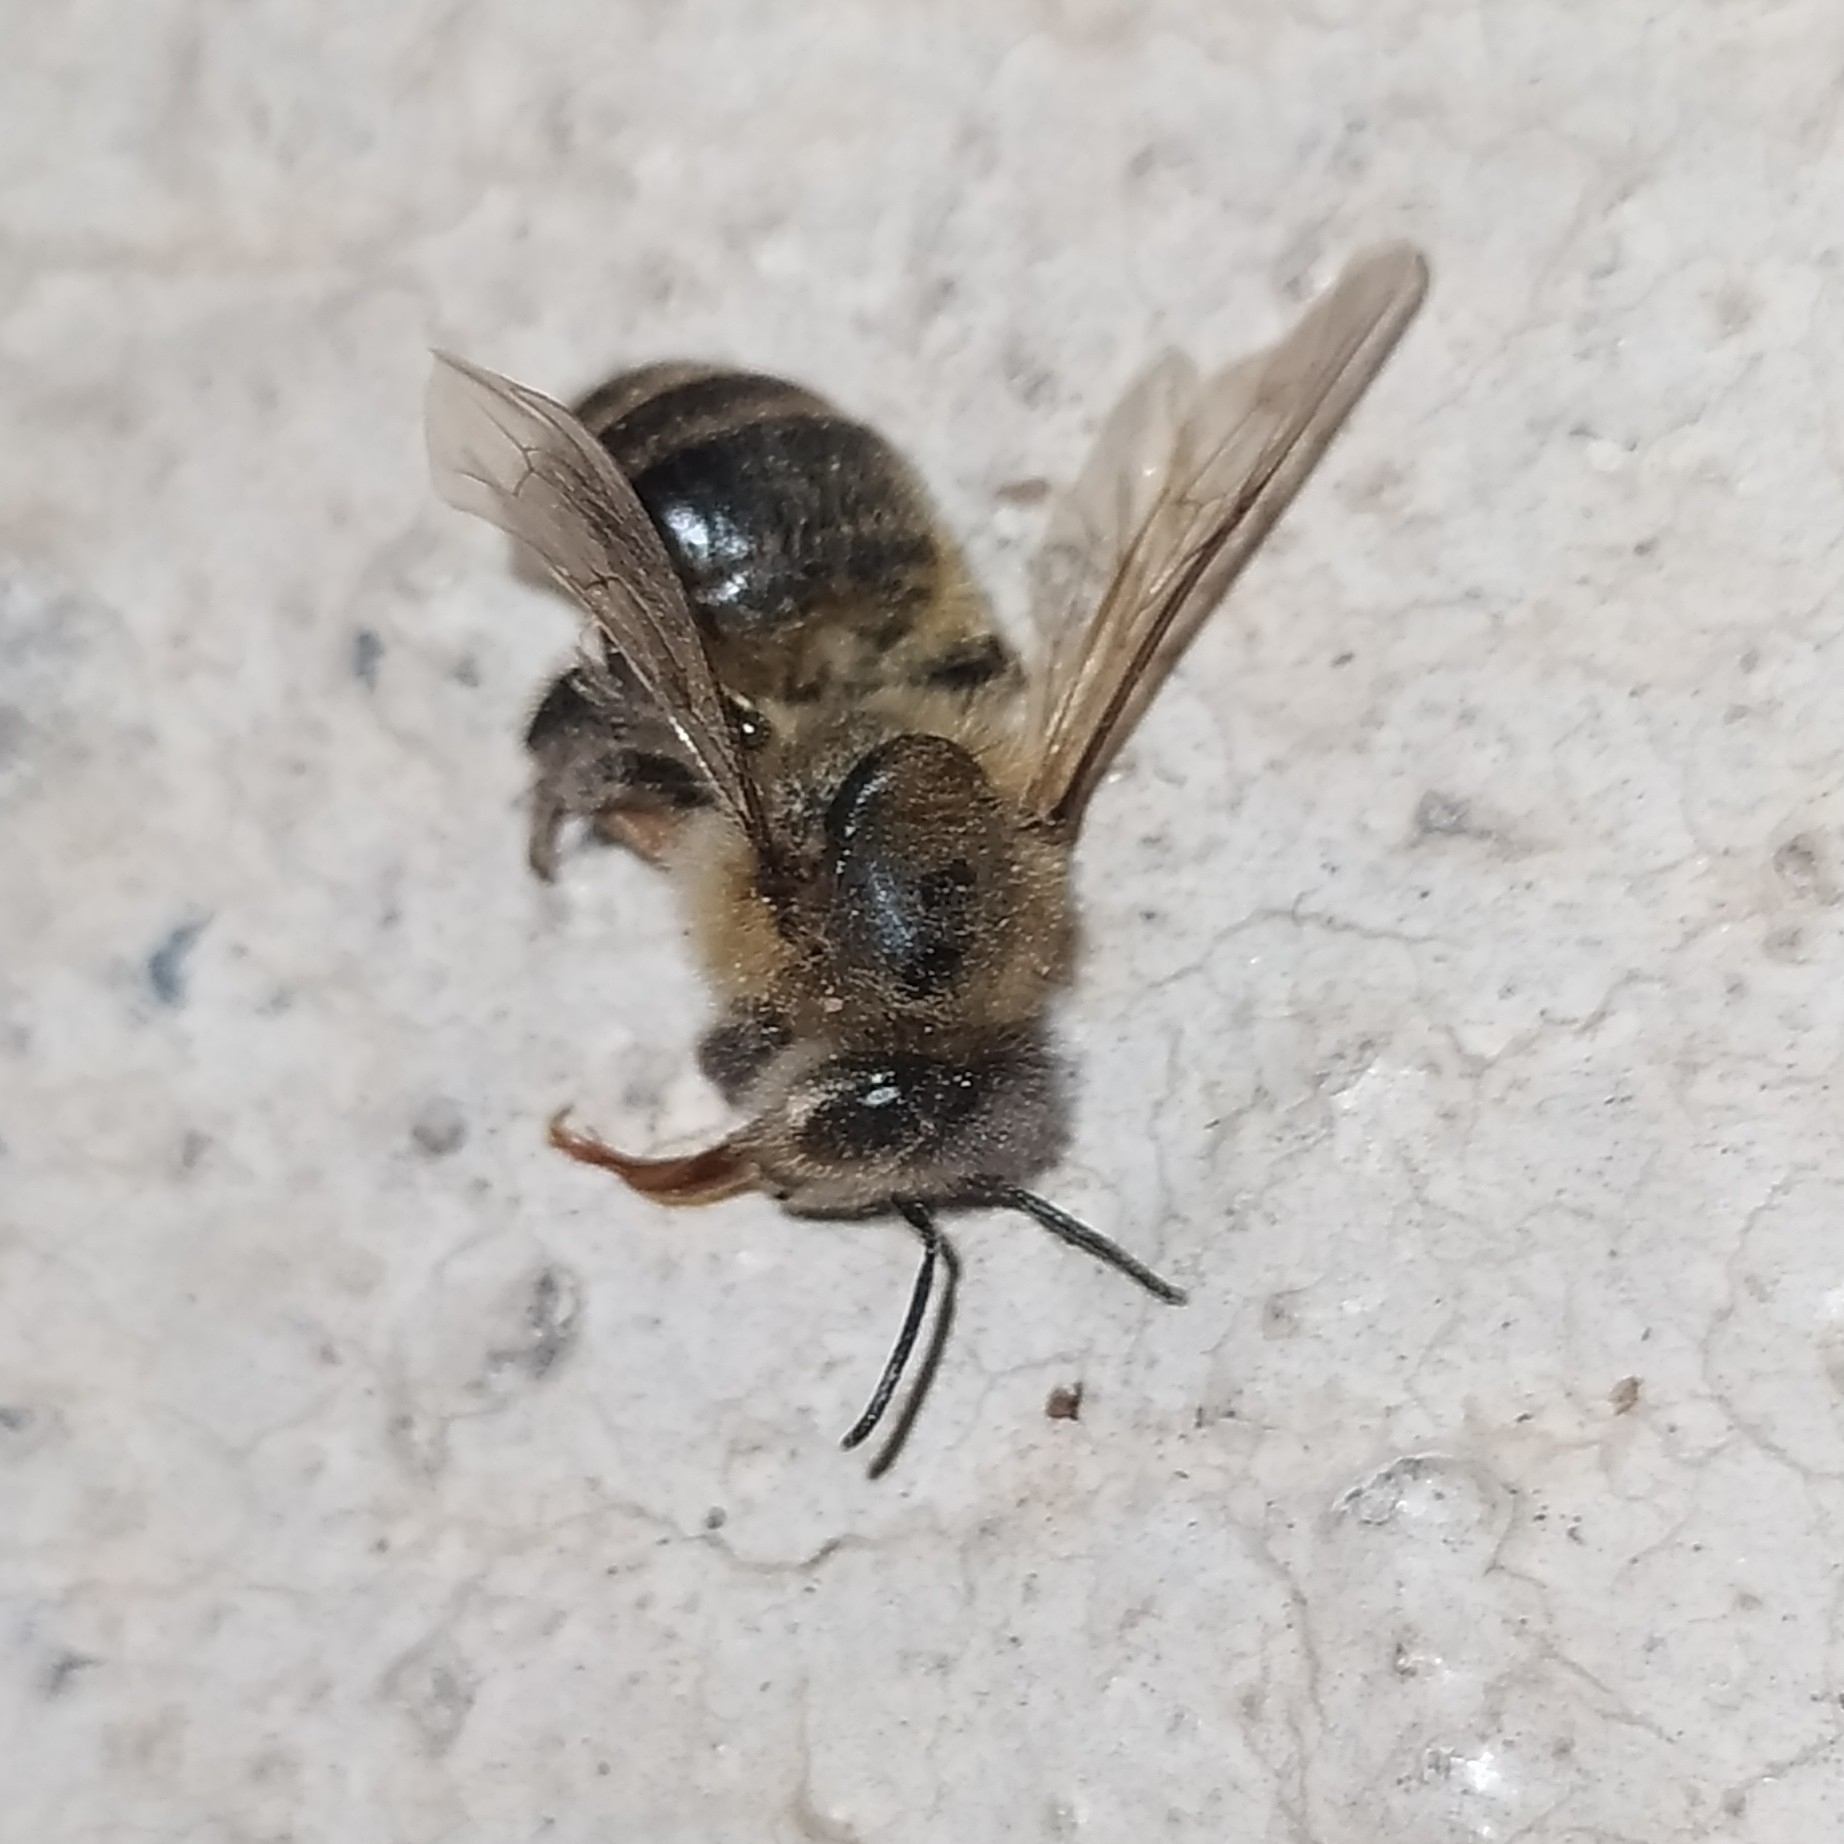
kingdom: Animalia
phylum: Arthropoda
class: Insecta
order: Hymenoptera
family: Apidae
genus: Apis
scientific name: Apis mellifera
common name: Honey bee
